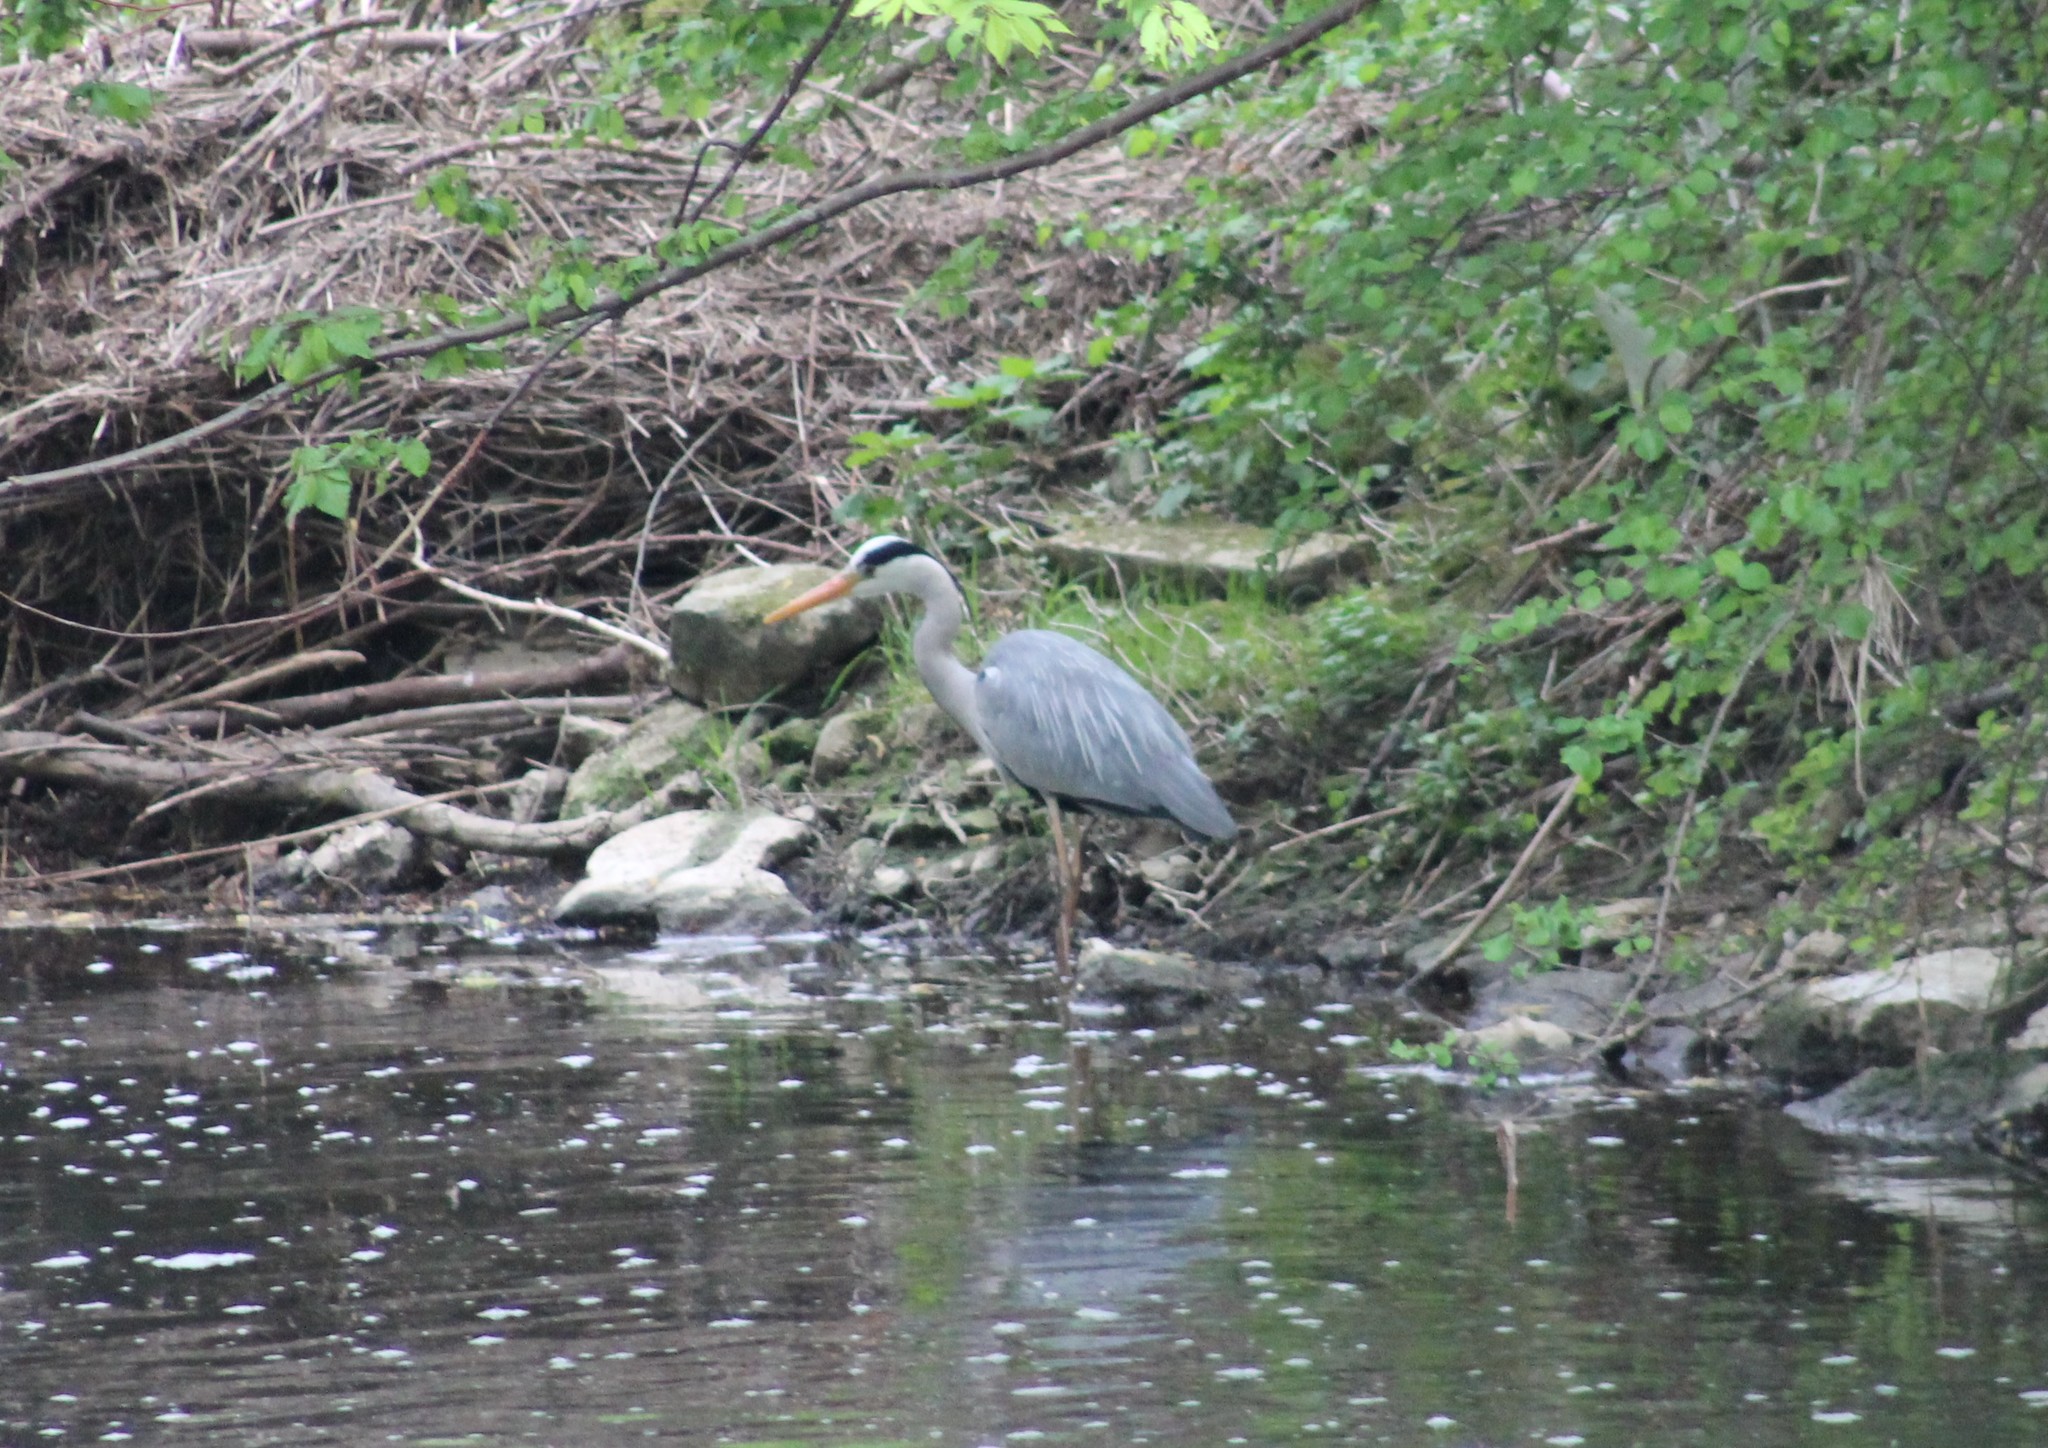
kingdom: Animalia
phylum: Chordata
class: Aves
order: Pelecaniformes
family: Ardeidae
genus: Ardea
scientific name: Ardea cinerea
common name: Grey heron
